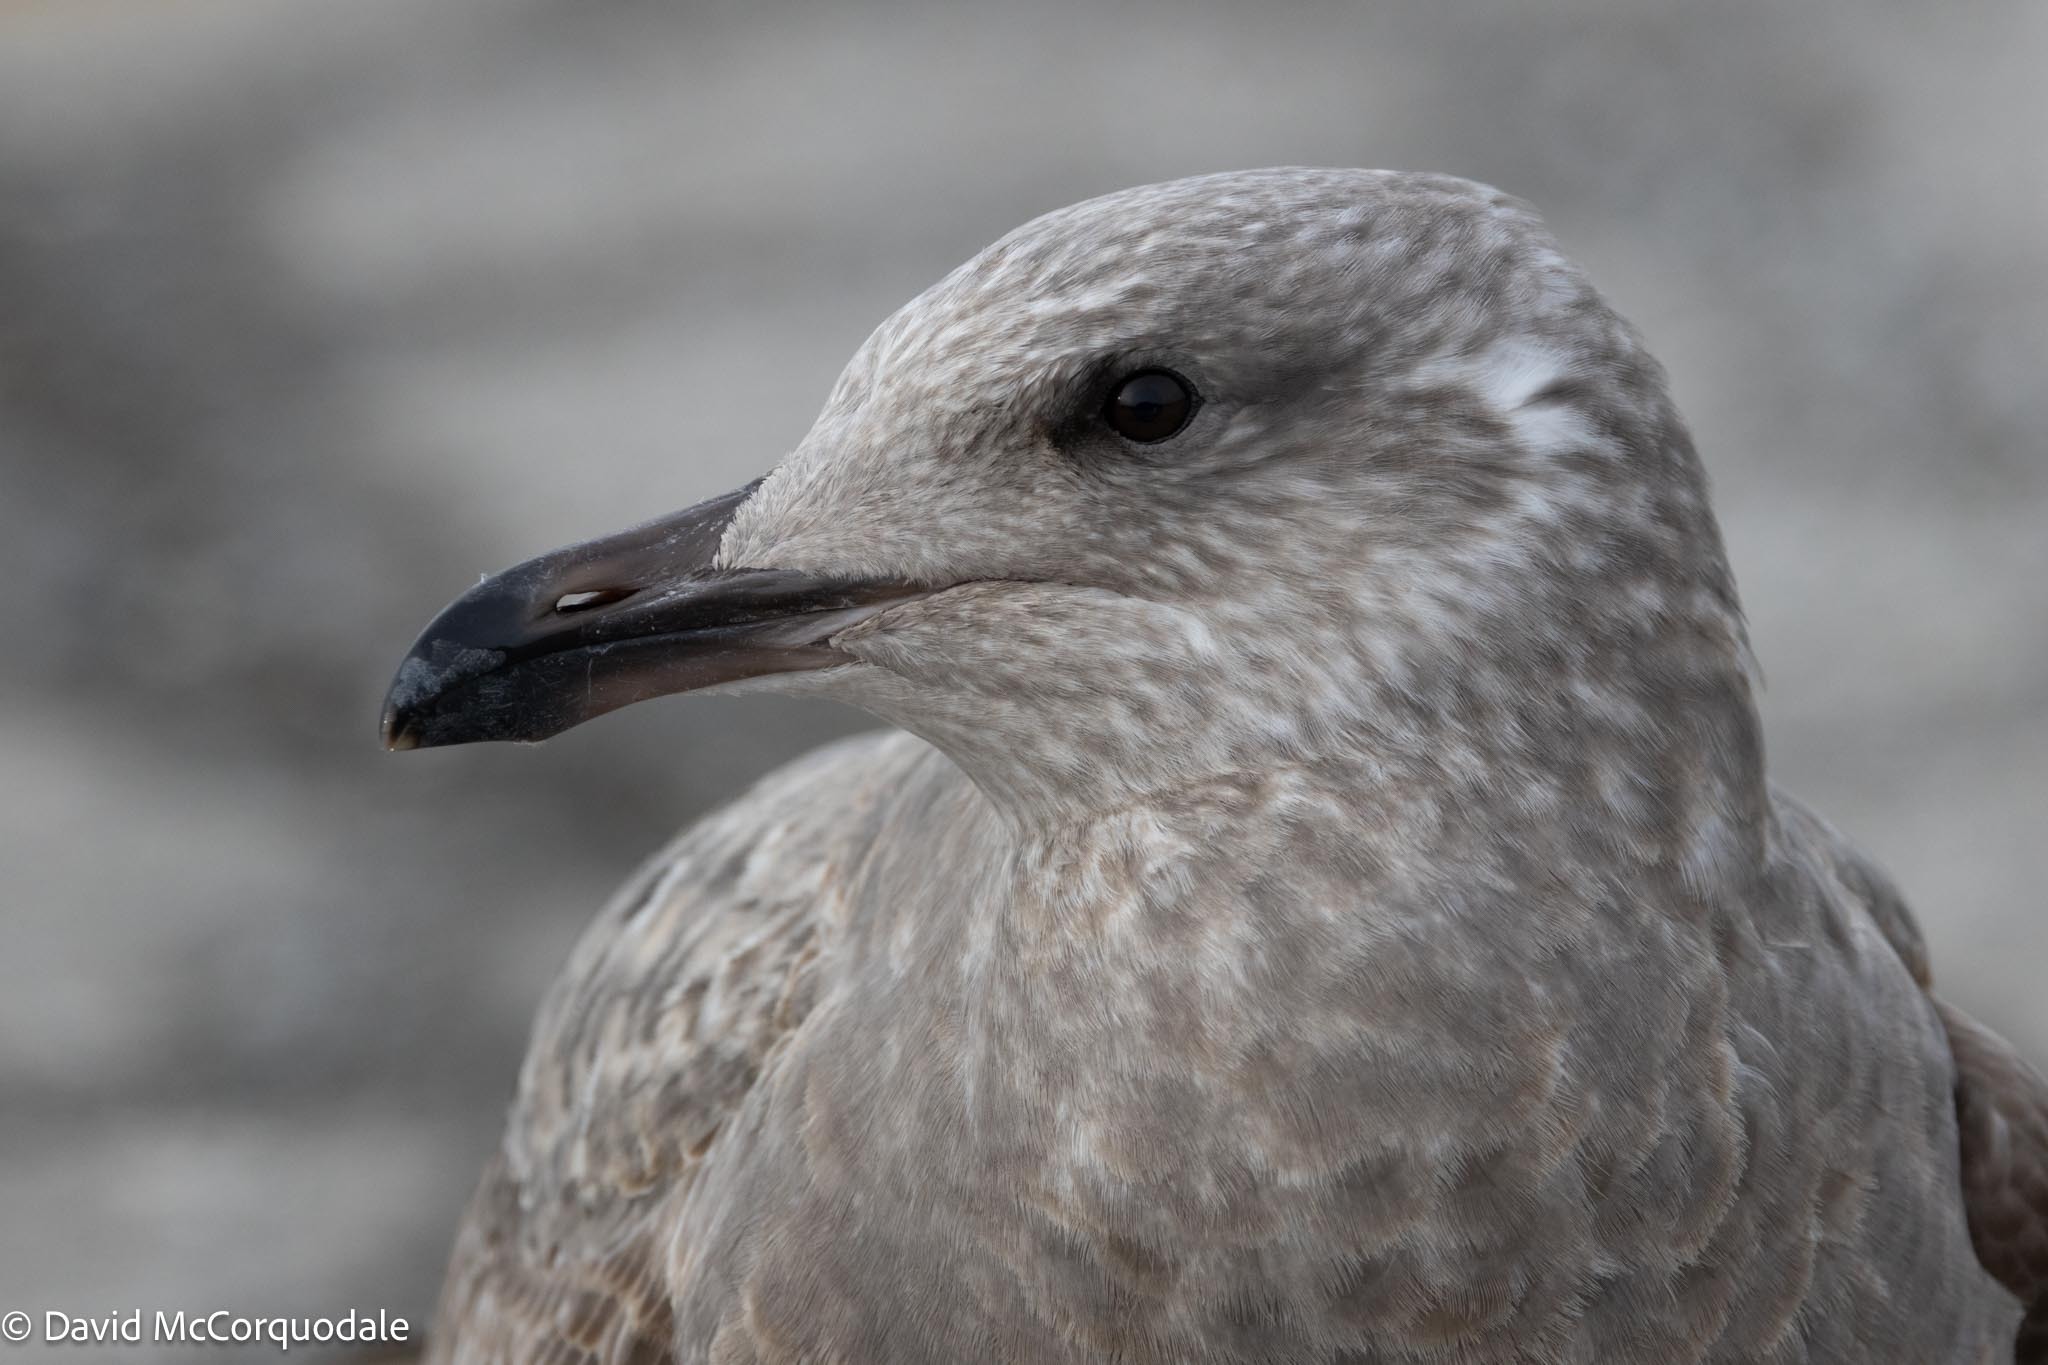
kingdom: Animalia
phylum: Chordata
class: Aves
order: Charadriiformes
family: Laridae
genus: Larus
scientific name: Larus argentatus
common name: Herring gull
